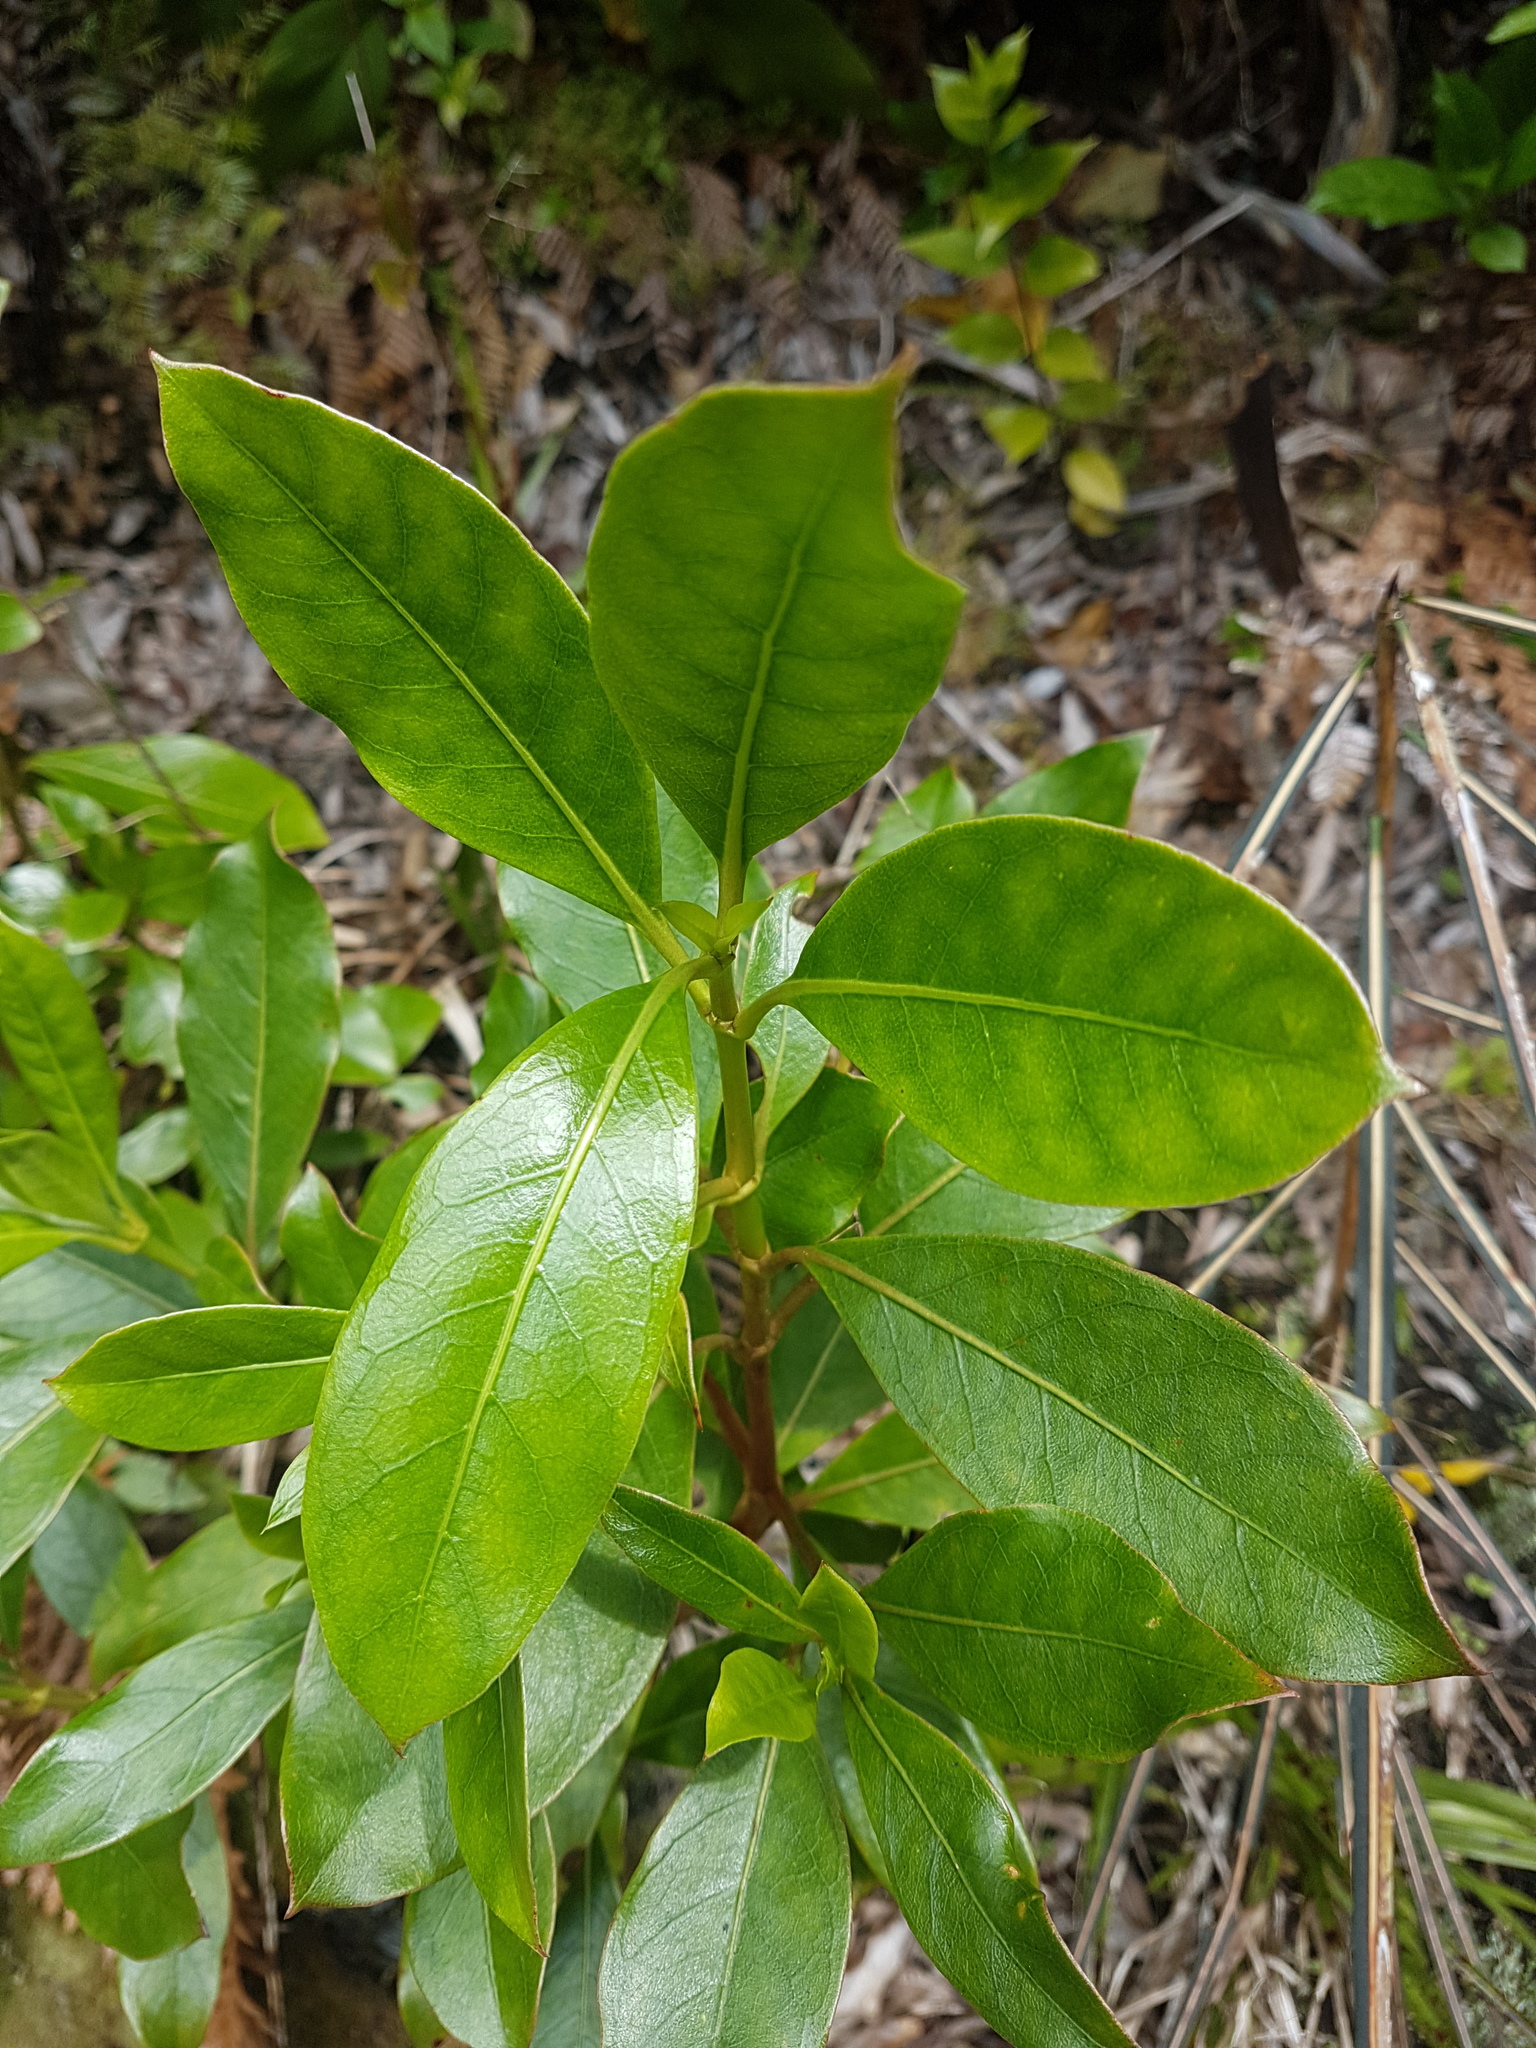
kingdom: Plantae
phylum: Tracheophyta
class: Magnoliopsida
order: Gentianales
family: Rubiaceae
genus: Coprosma
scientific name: Coprosma lucida
